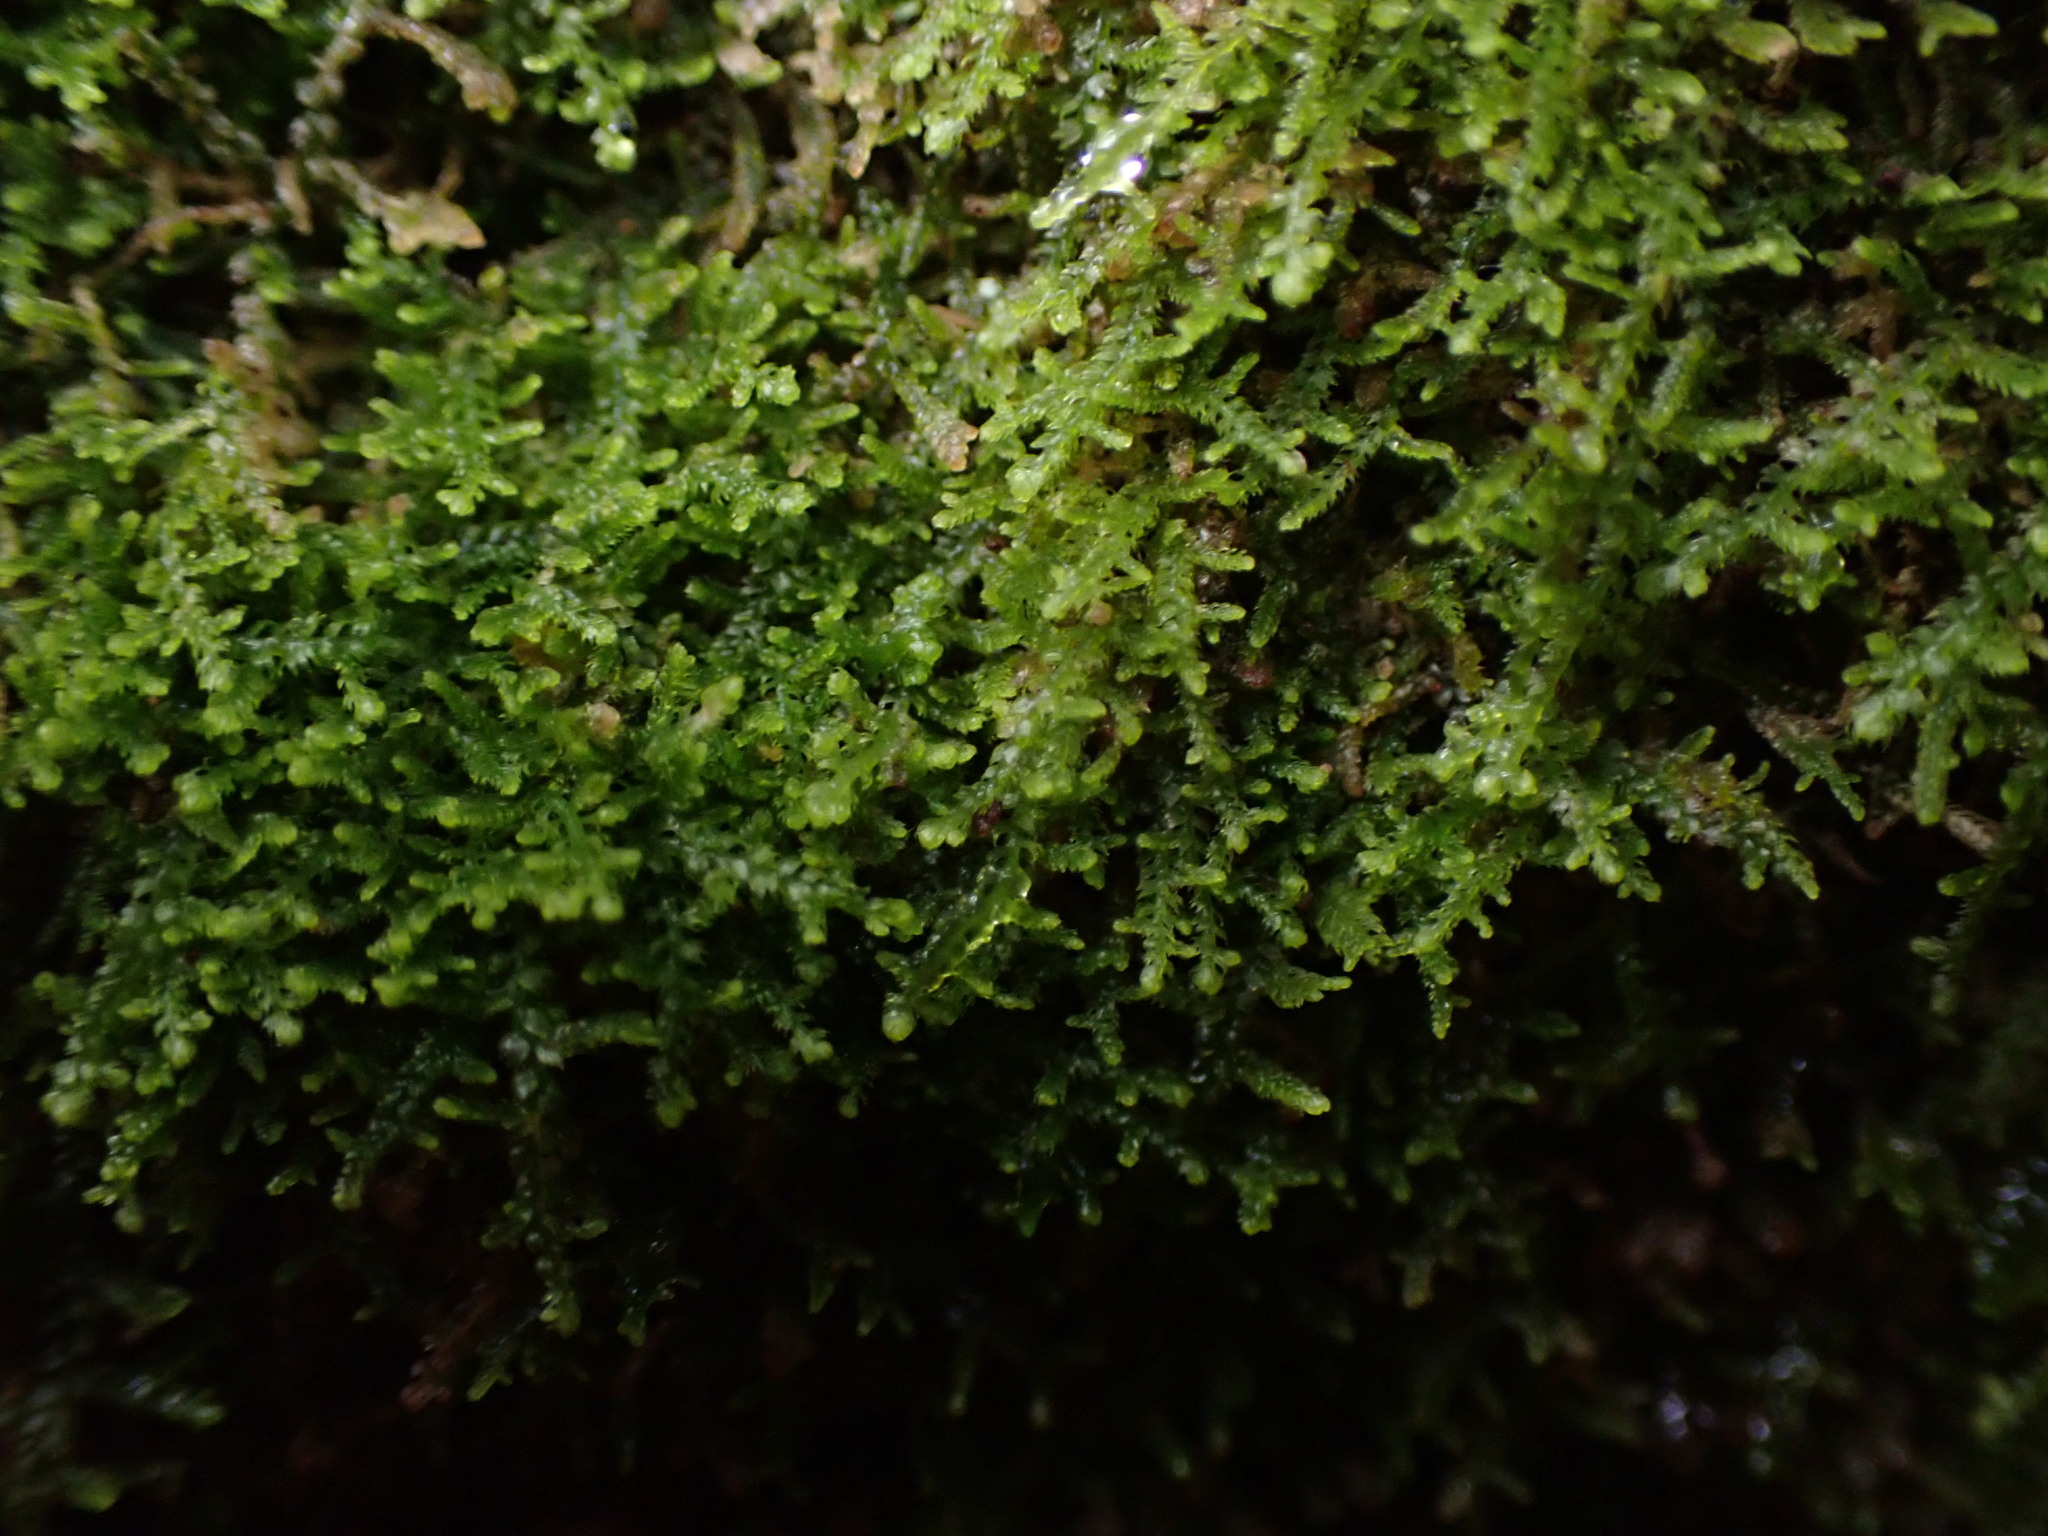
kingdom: Plantae
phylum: Marchantiophyta
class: Jungermanniopsida
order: Jungermanniales
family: Lepidoziaceae
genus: Lepidozia
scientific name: Lepidozia reptans
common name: Creeping fingerwort
